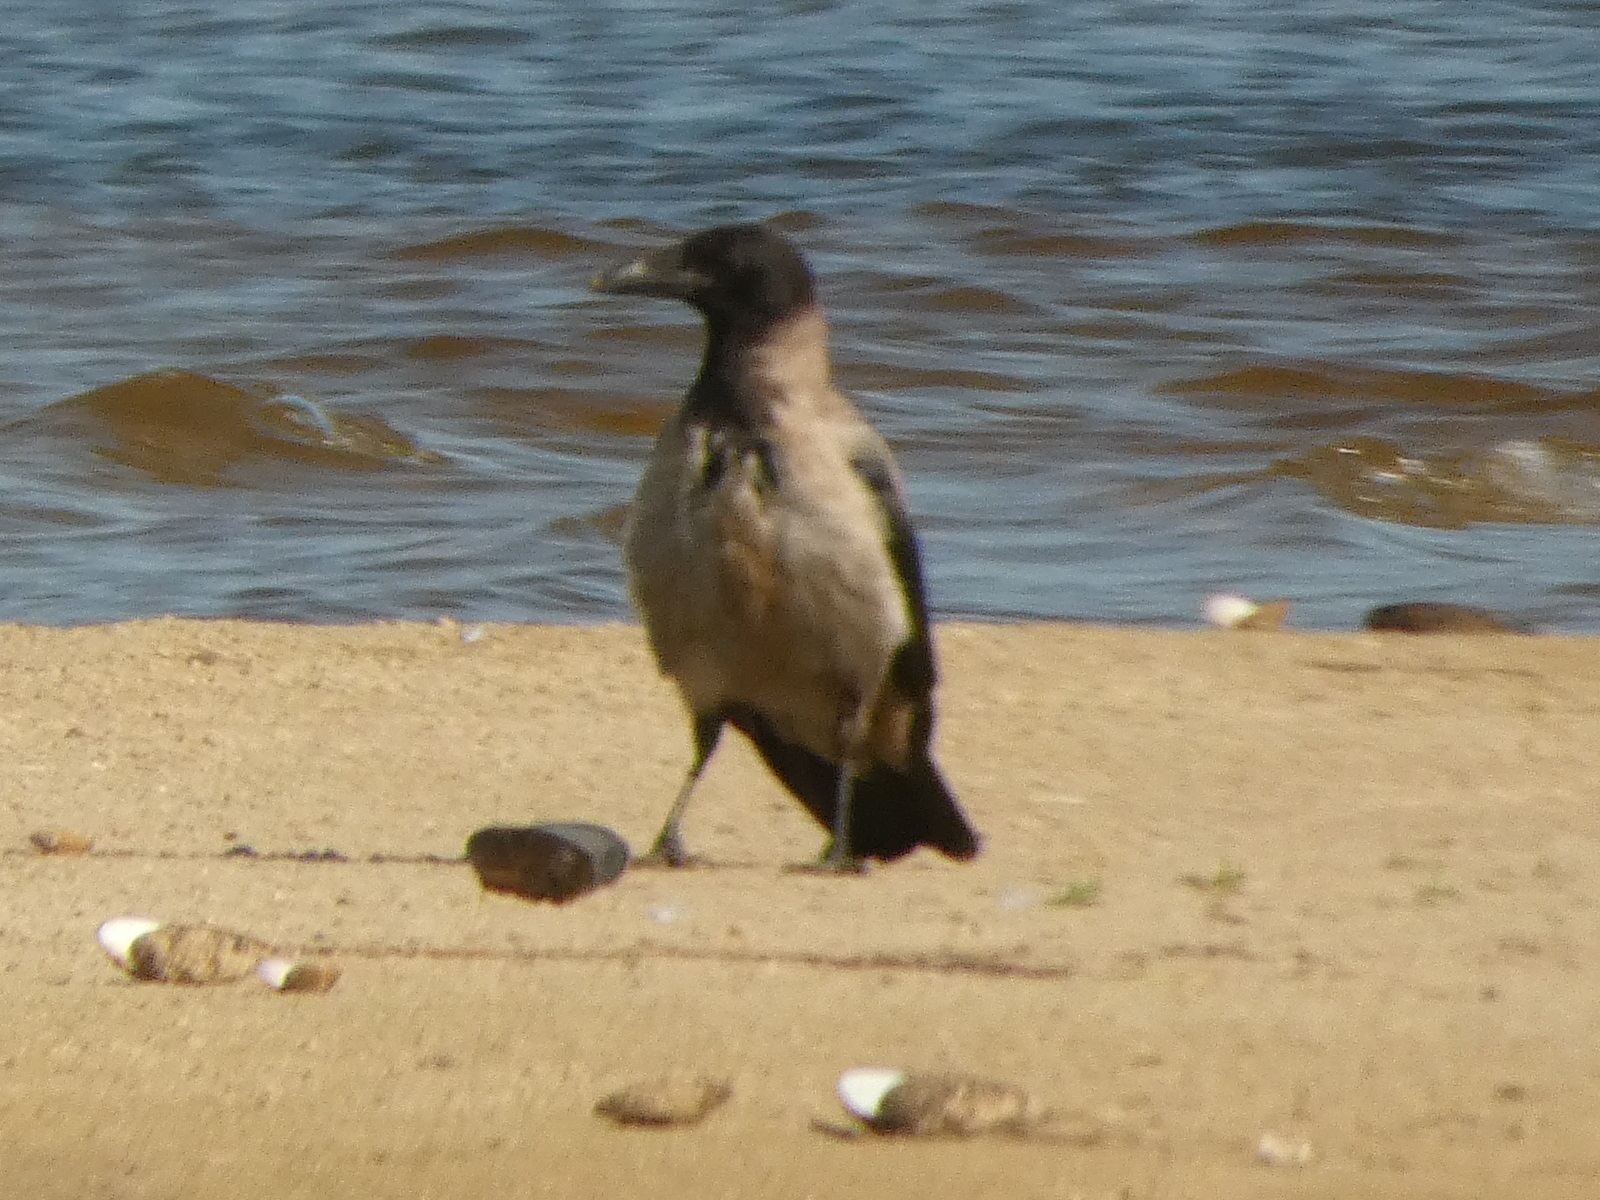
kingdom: Animalia
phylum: Chordata
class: Aves
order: Passeriformes
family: Corvidae
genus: Corvus
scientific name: Corvus cornix
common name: Hooded crow
